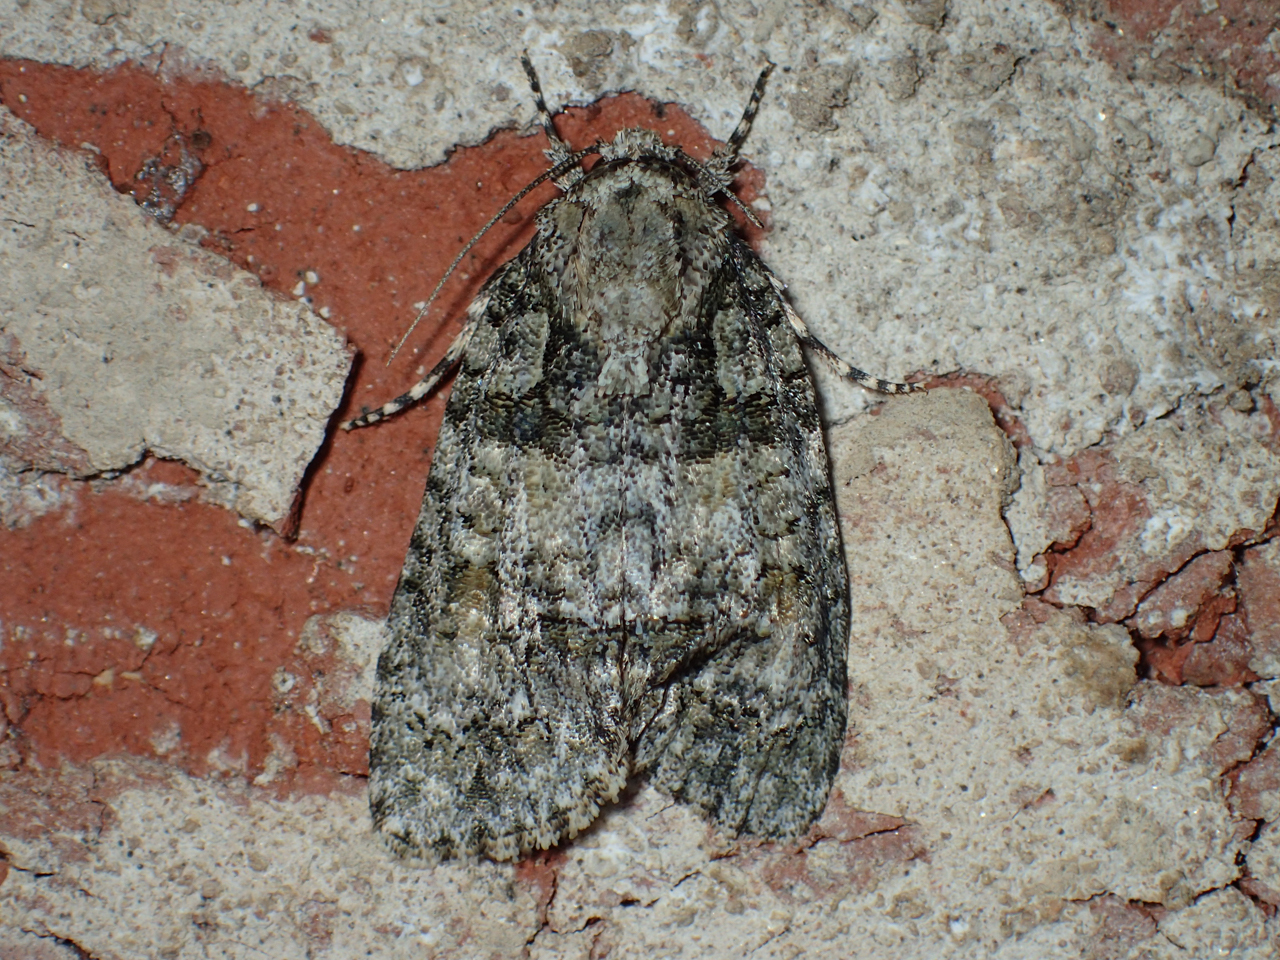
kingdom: Animalia
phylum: Arthropoda
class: Insecta
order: Lepidoptera
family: Noctuidae
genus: Acronicta
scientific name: Acronicta ovata
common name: Epauleted oak dagger
